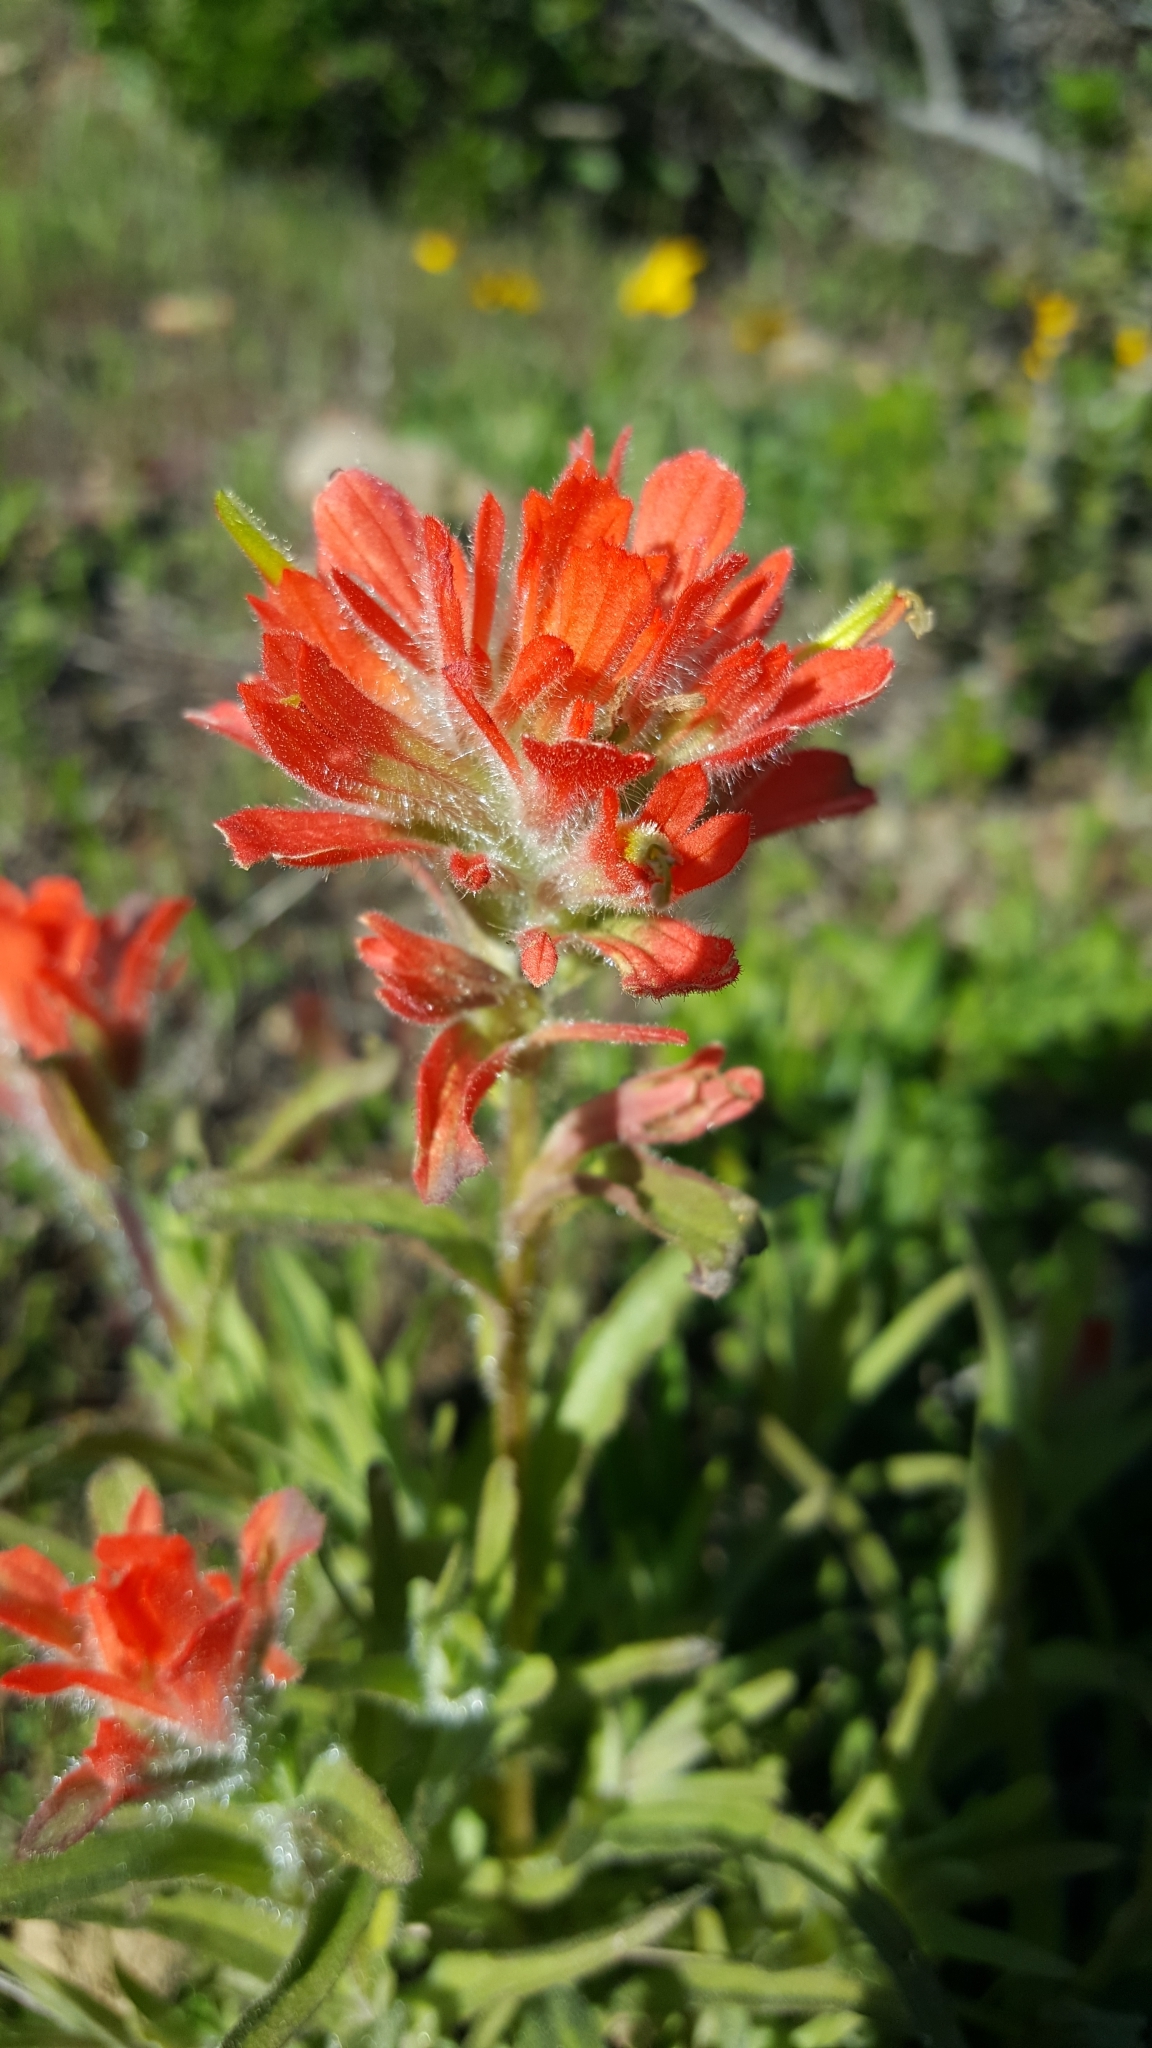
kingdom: Plantae
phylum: Tracheophyta
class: Magnoliopsida
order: Lamiales
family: Orobanchaceae
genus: Castilleja
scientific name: Castilleja affinis
